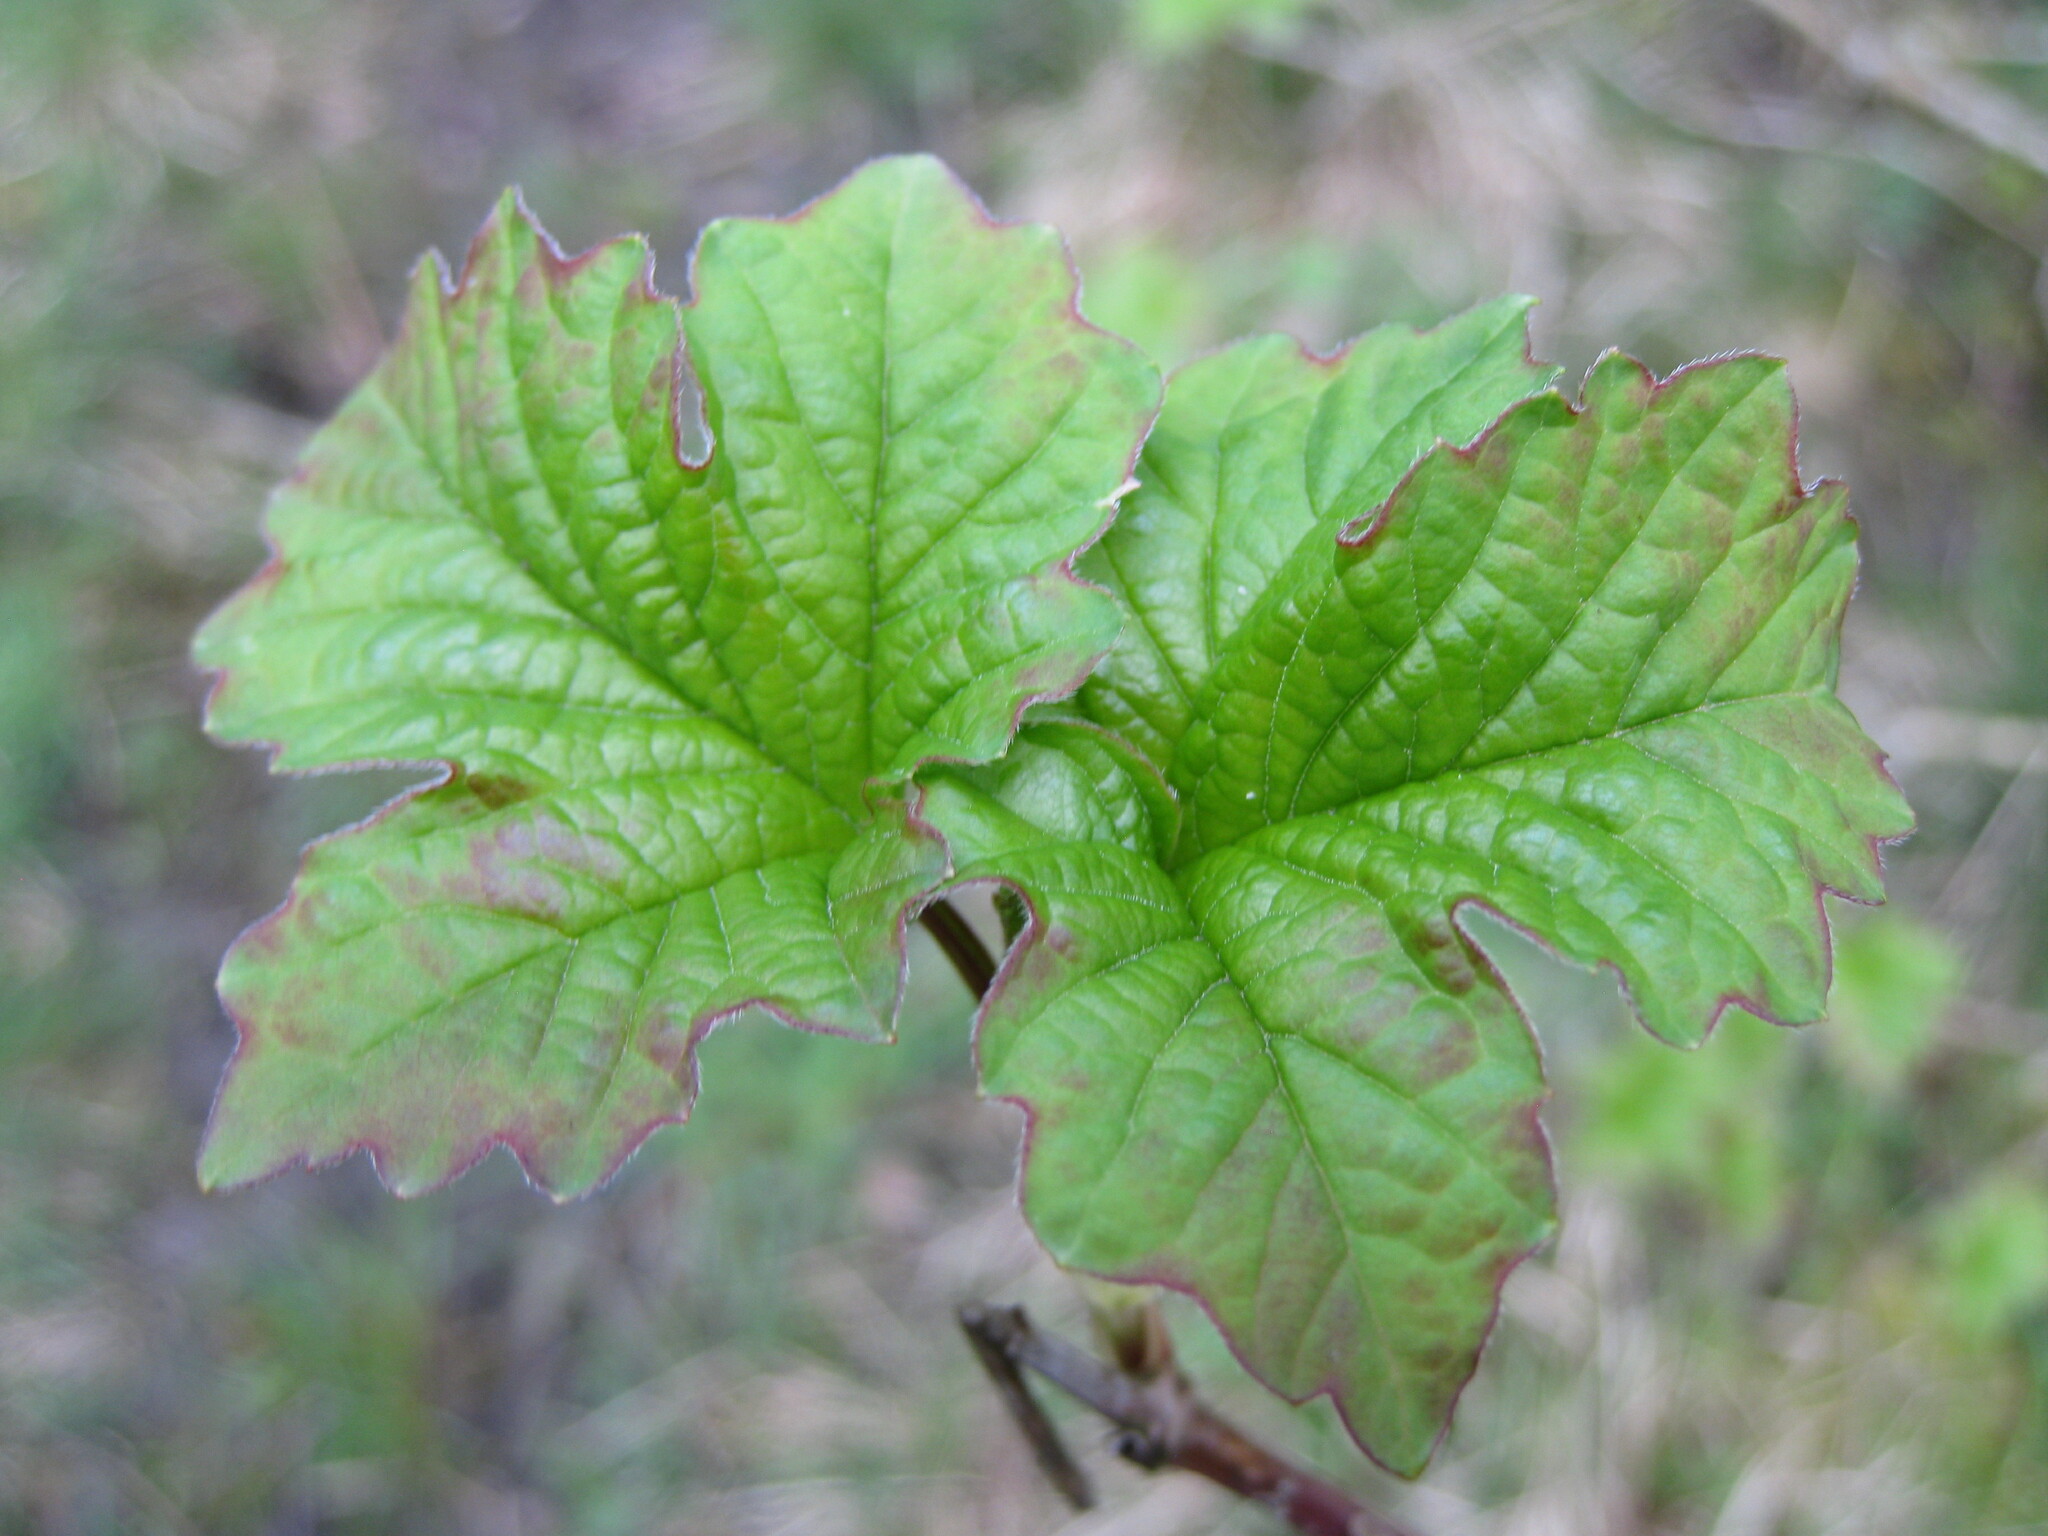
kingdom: Plantae
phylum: Tracheophyta
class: Magnoliopsida
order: Dipsacales
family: Viburnaceae
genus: Viburnum
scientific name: Viburnum opulus
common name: Guelder-rose
